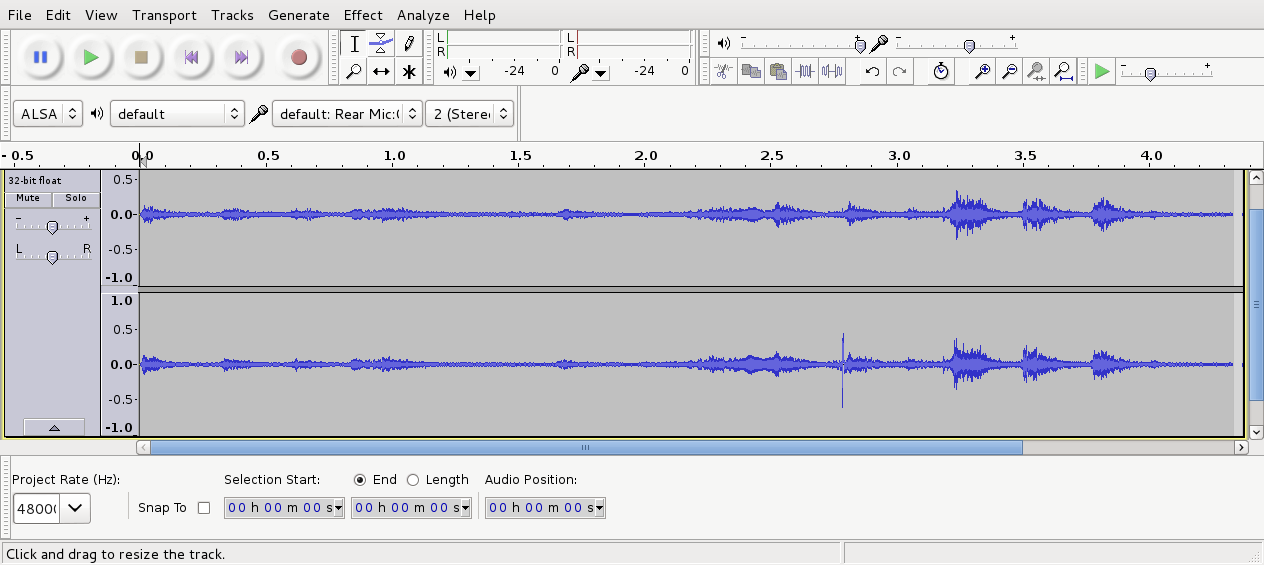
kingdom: Animalia
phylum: Chordata
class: Aves
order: Passeriformes
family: Meliphagidae
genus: Anthornis
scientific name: Anthornis melanura
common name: New zealand bellbird
